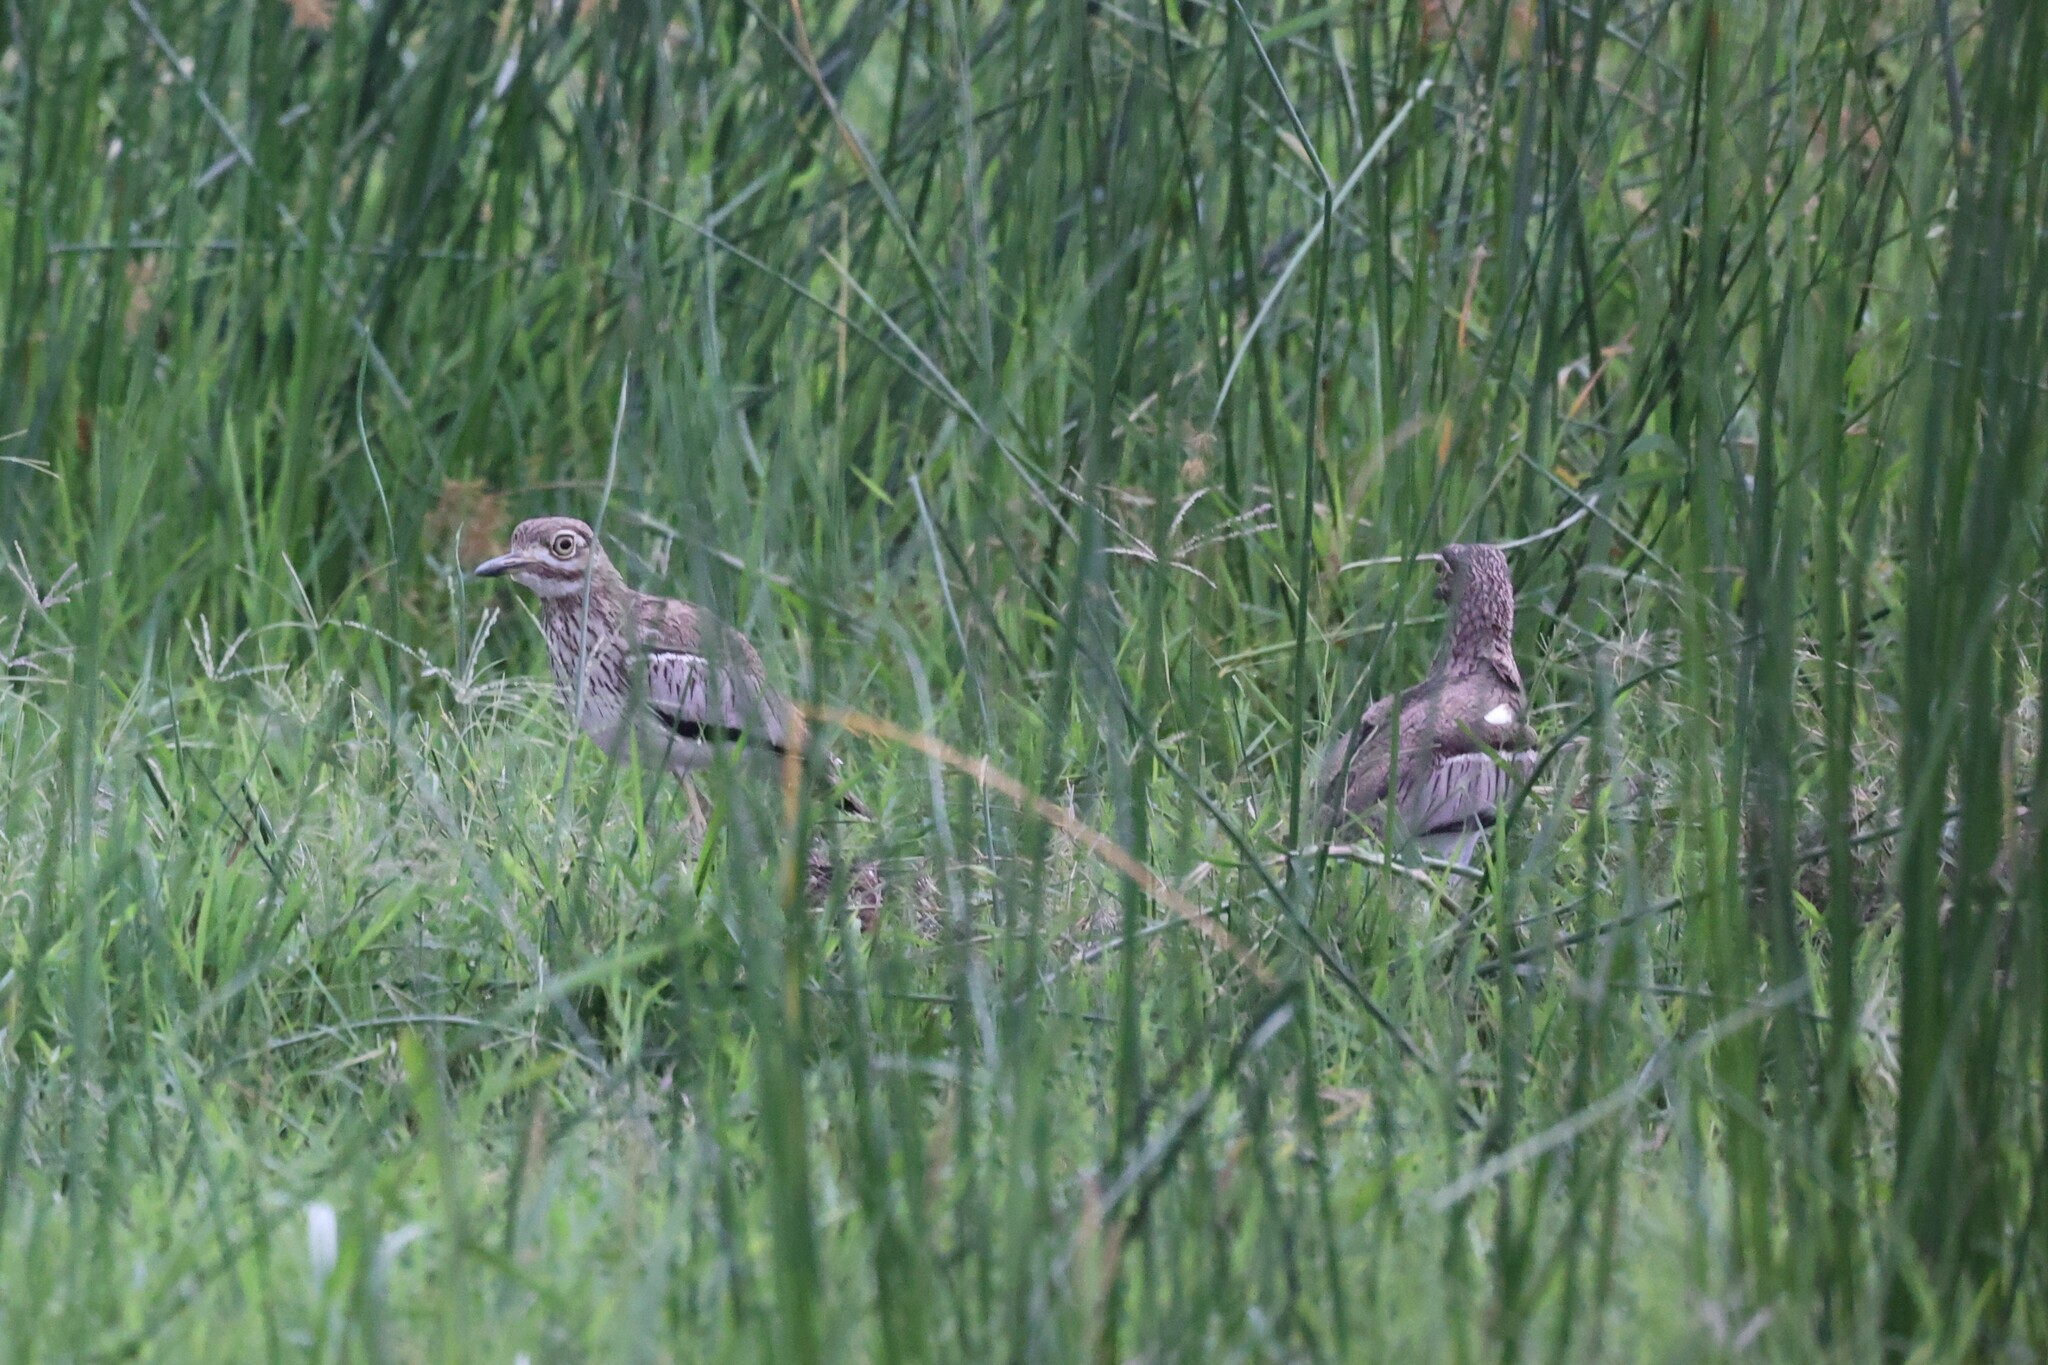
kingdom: Animalia
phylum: Chordata
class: Aves
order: Charadriiformes
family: Burhinidae
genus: Burhinus
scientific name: Burhinus vermiculatus
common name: Water thick-knee
